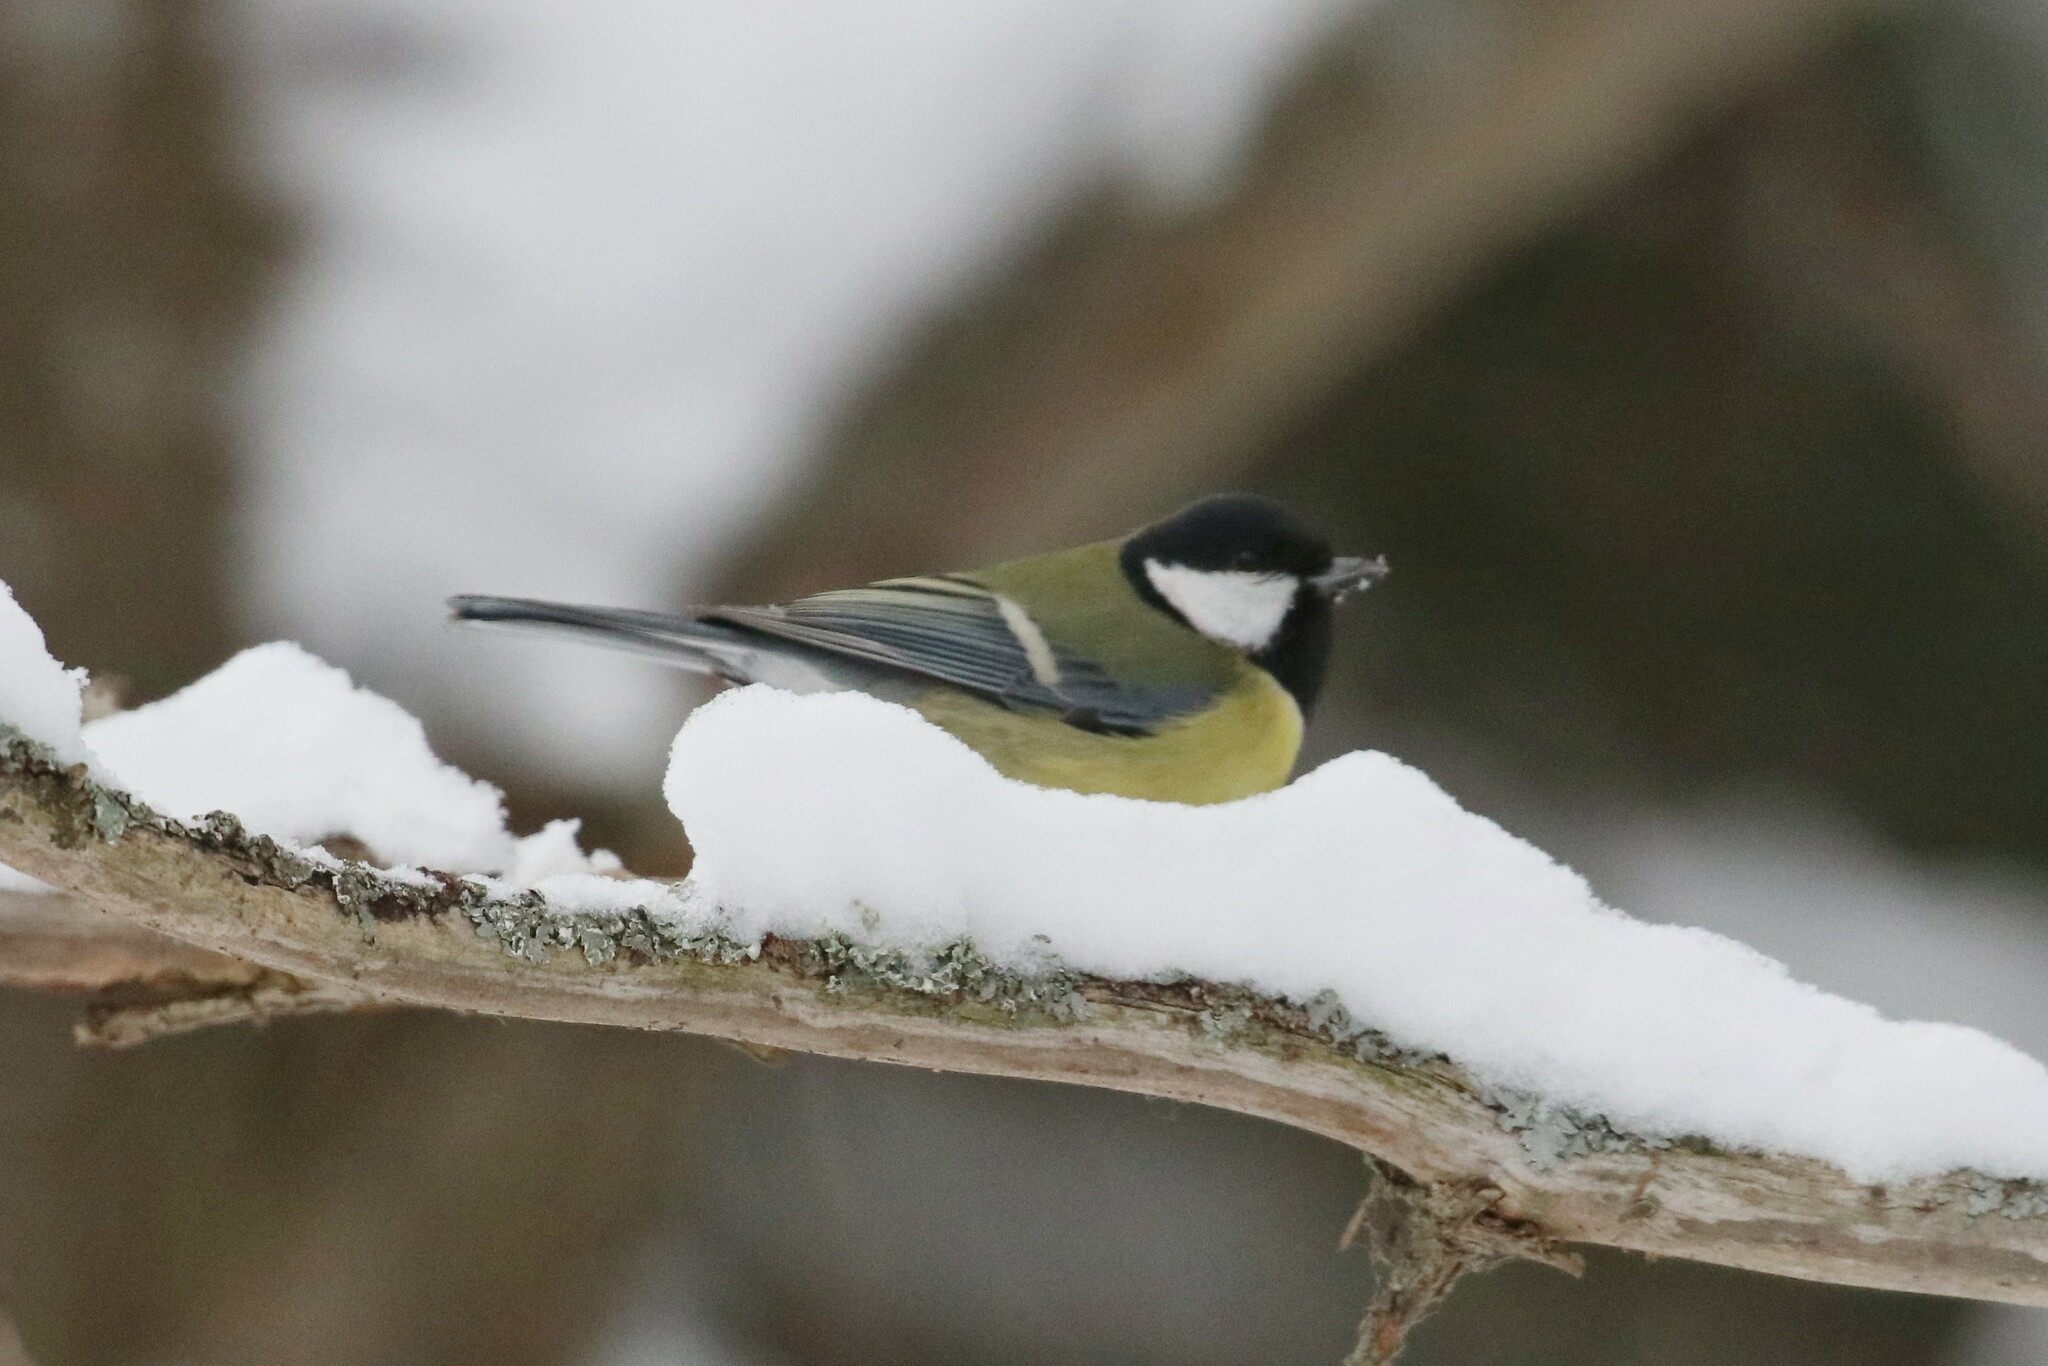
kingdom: Animalia
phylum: Chordata
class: Aves
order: Passeriformes
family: Paridae
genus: Parus
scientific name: Parus major
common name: Great tit
